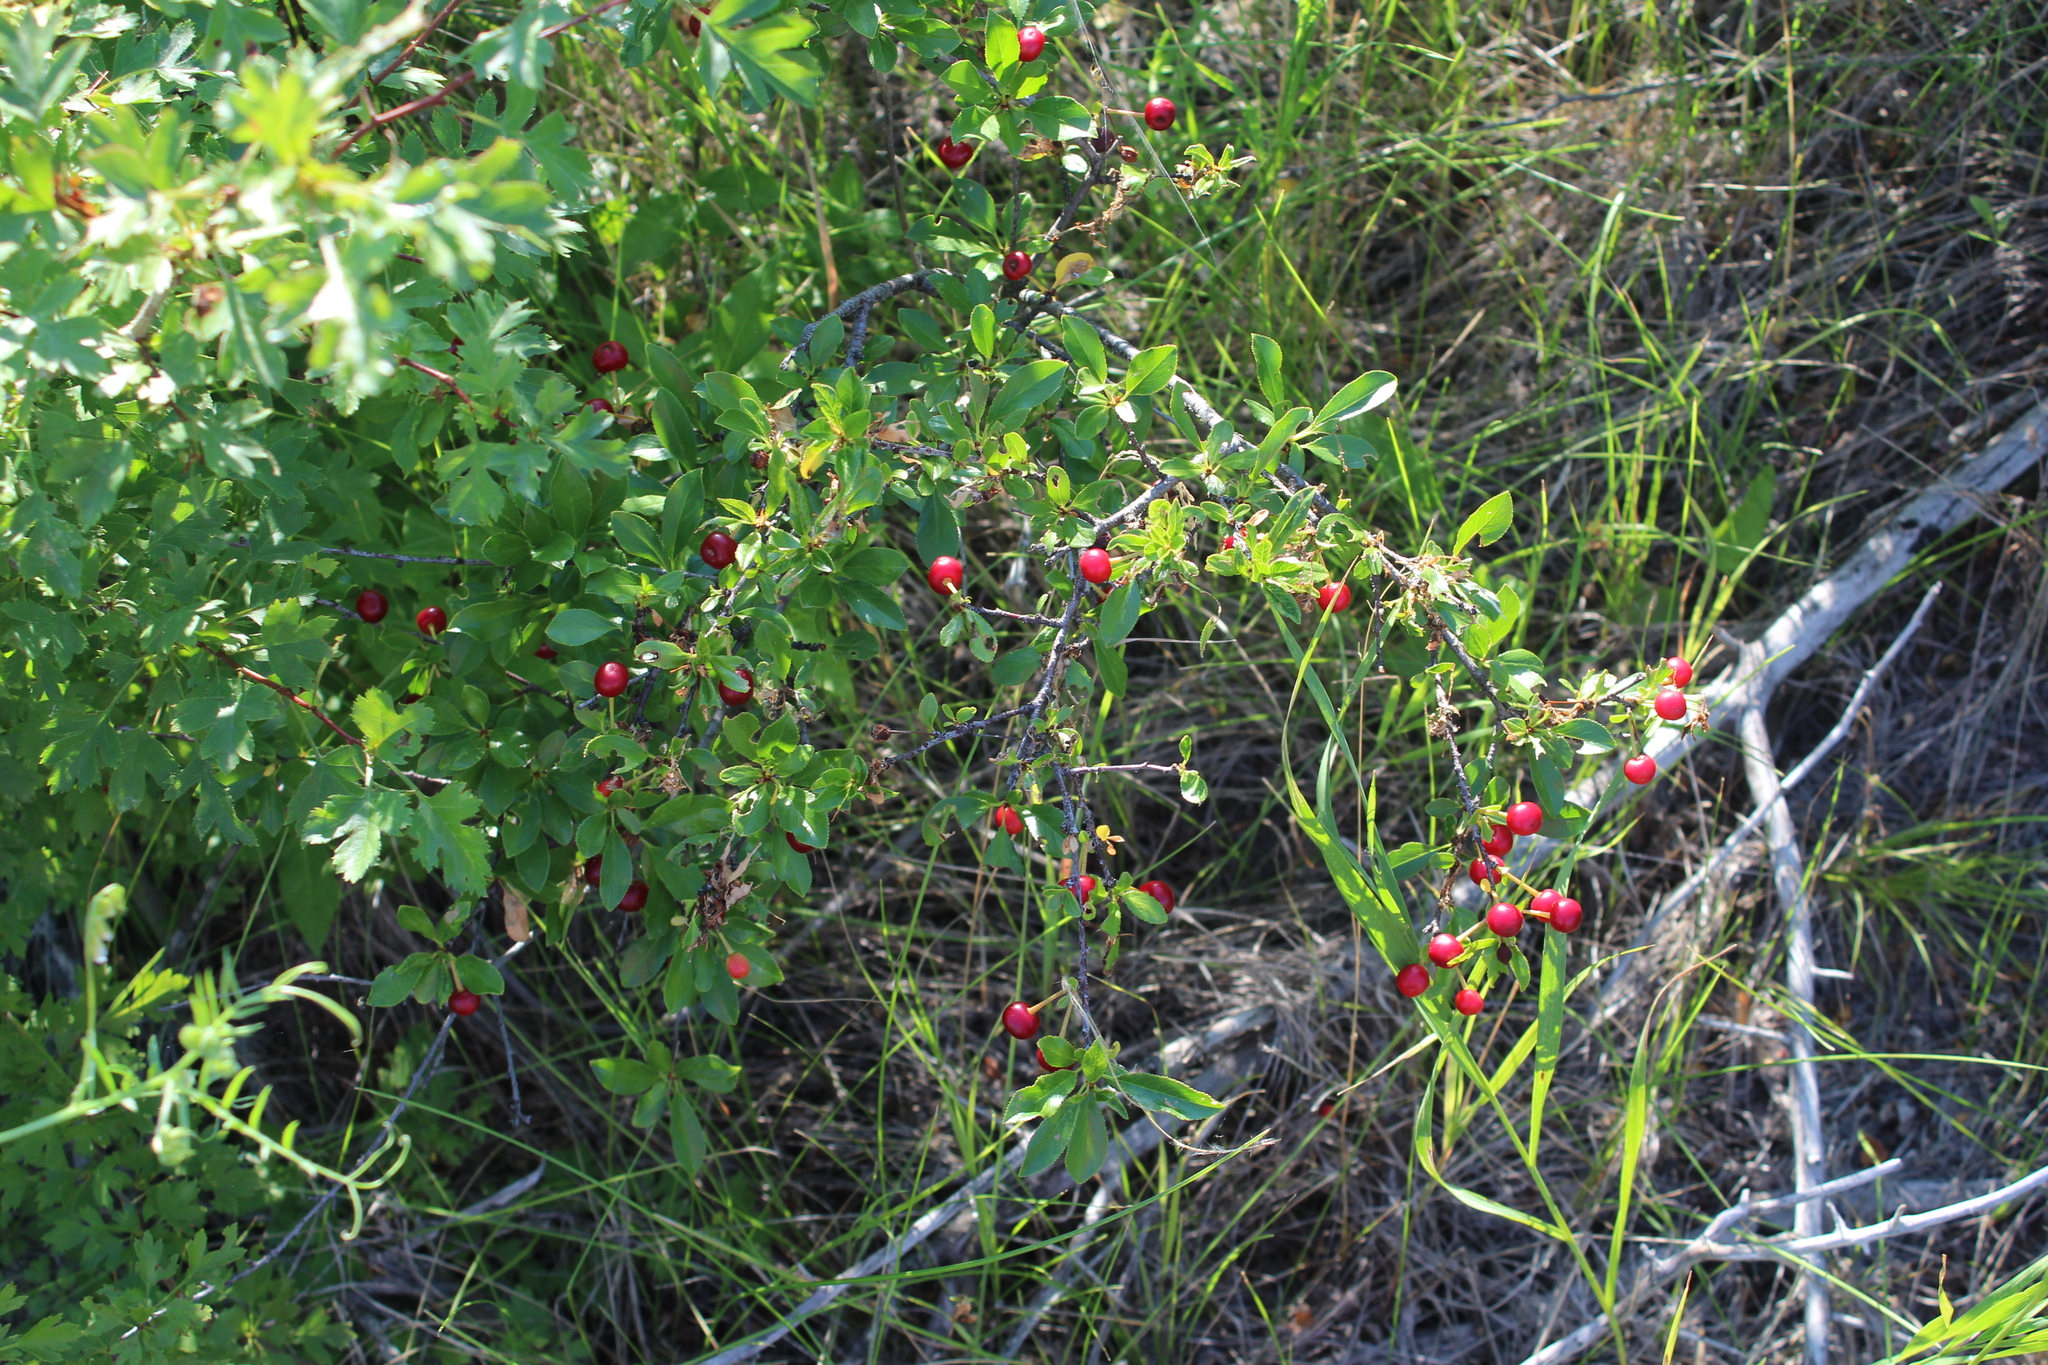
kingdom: Plantae
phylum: Tracheophyta
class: Magnoliopsida
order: Rosales
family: Rosaceae
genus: Prunus
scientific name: Prunus fruticosa
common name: European dwarf cherry
